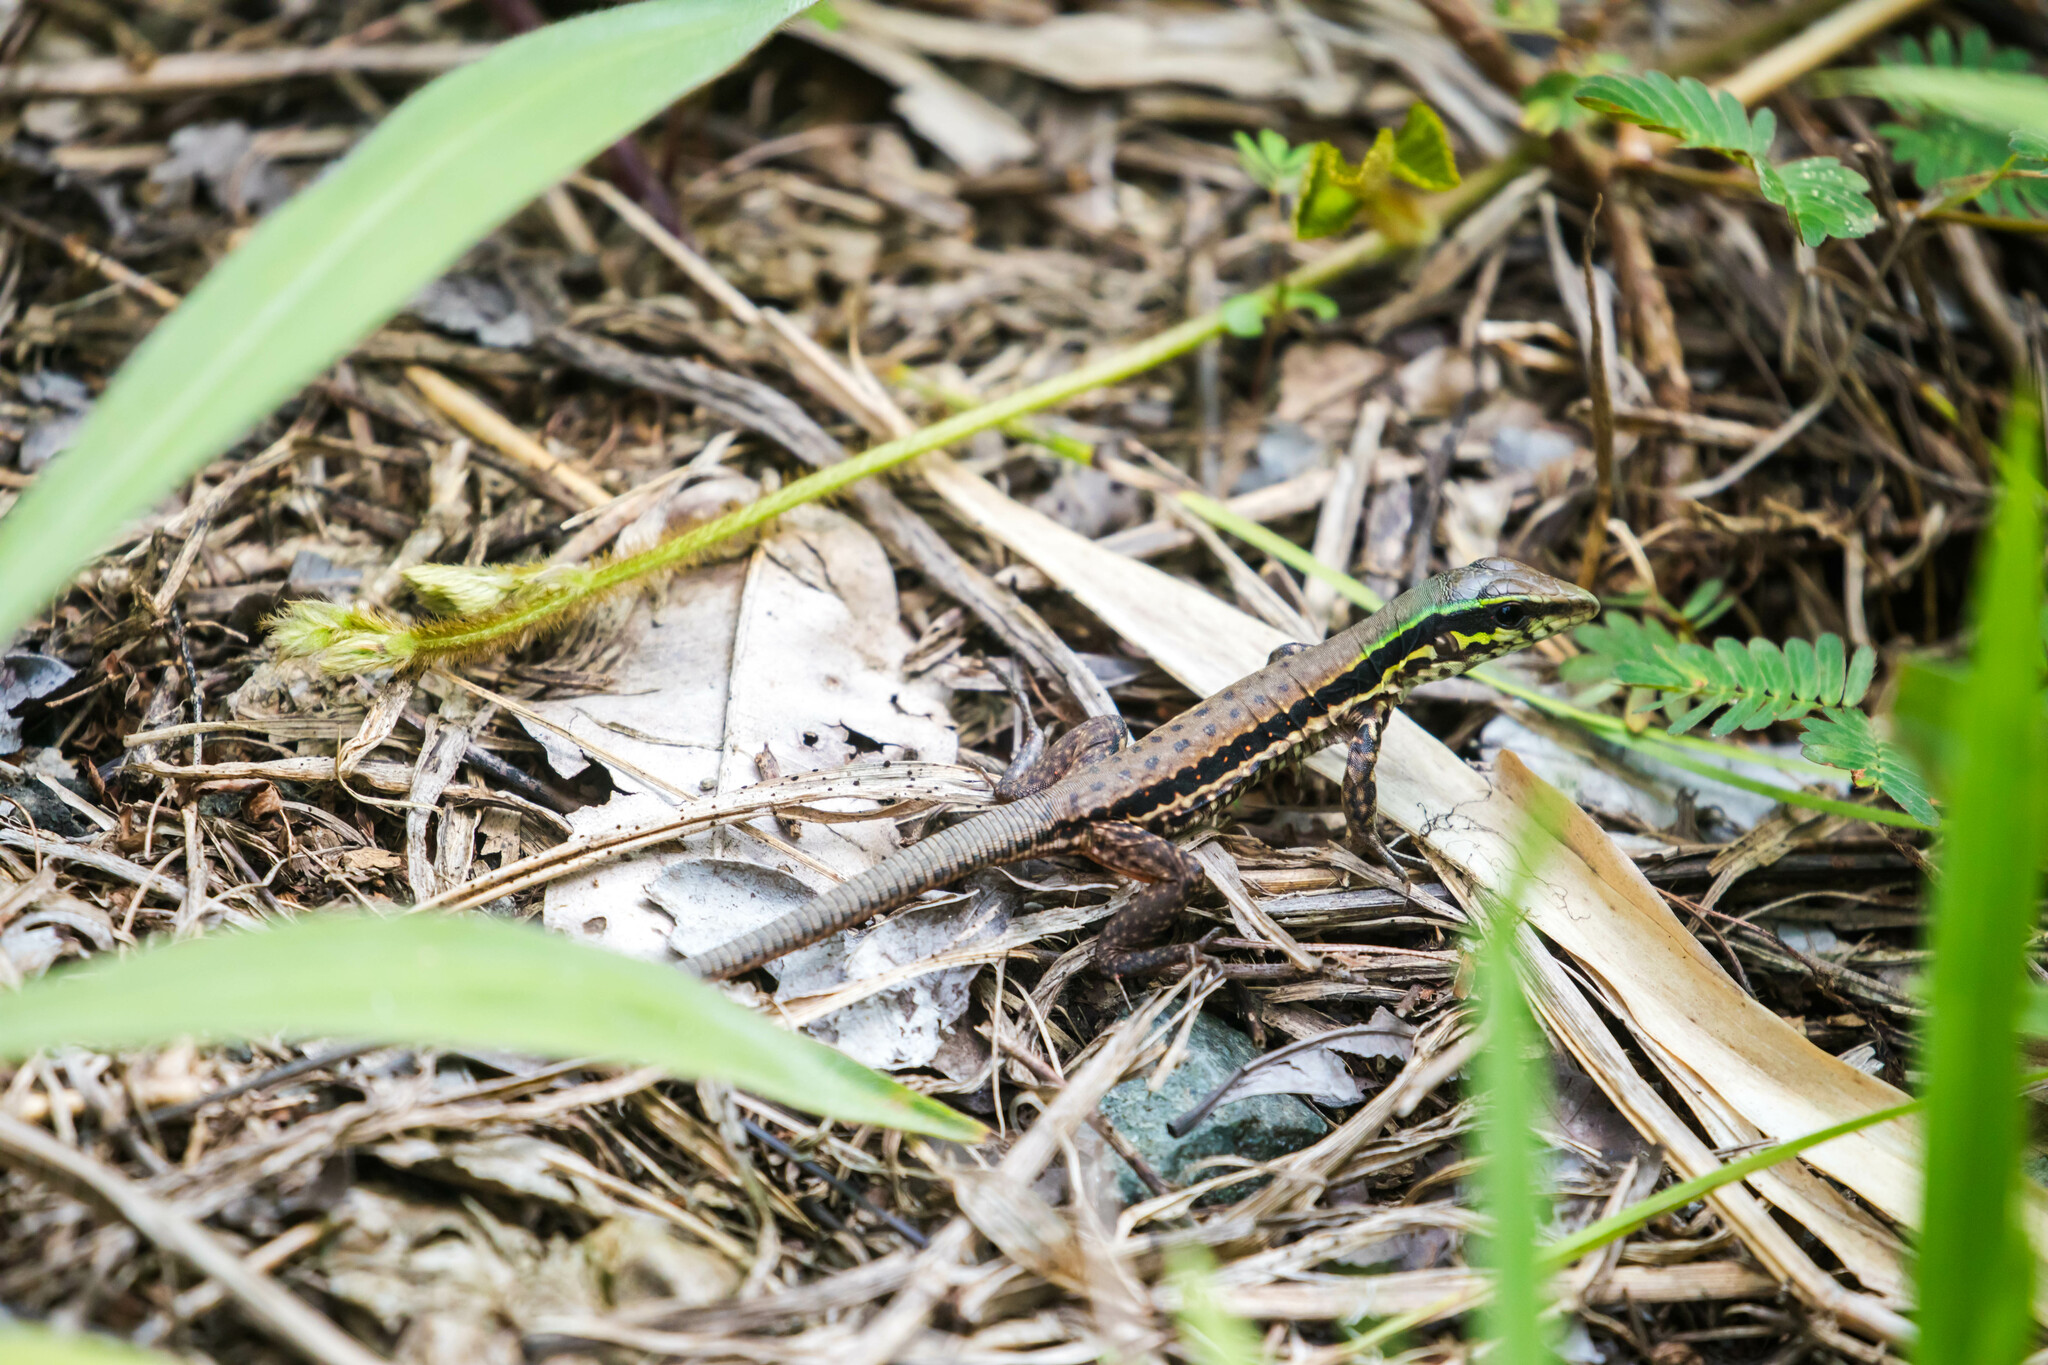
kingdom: Animalia
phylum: Chordata
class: Squamata
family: Teiidae
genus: Ameiva
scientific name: Ameiva atrigularis
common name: Venezuelan ameiva
